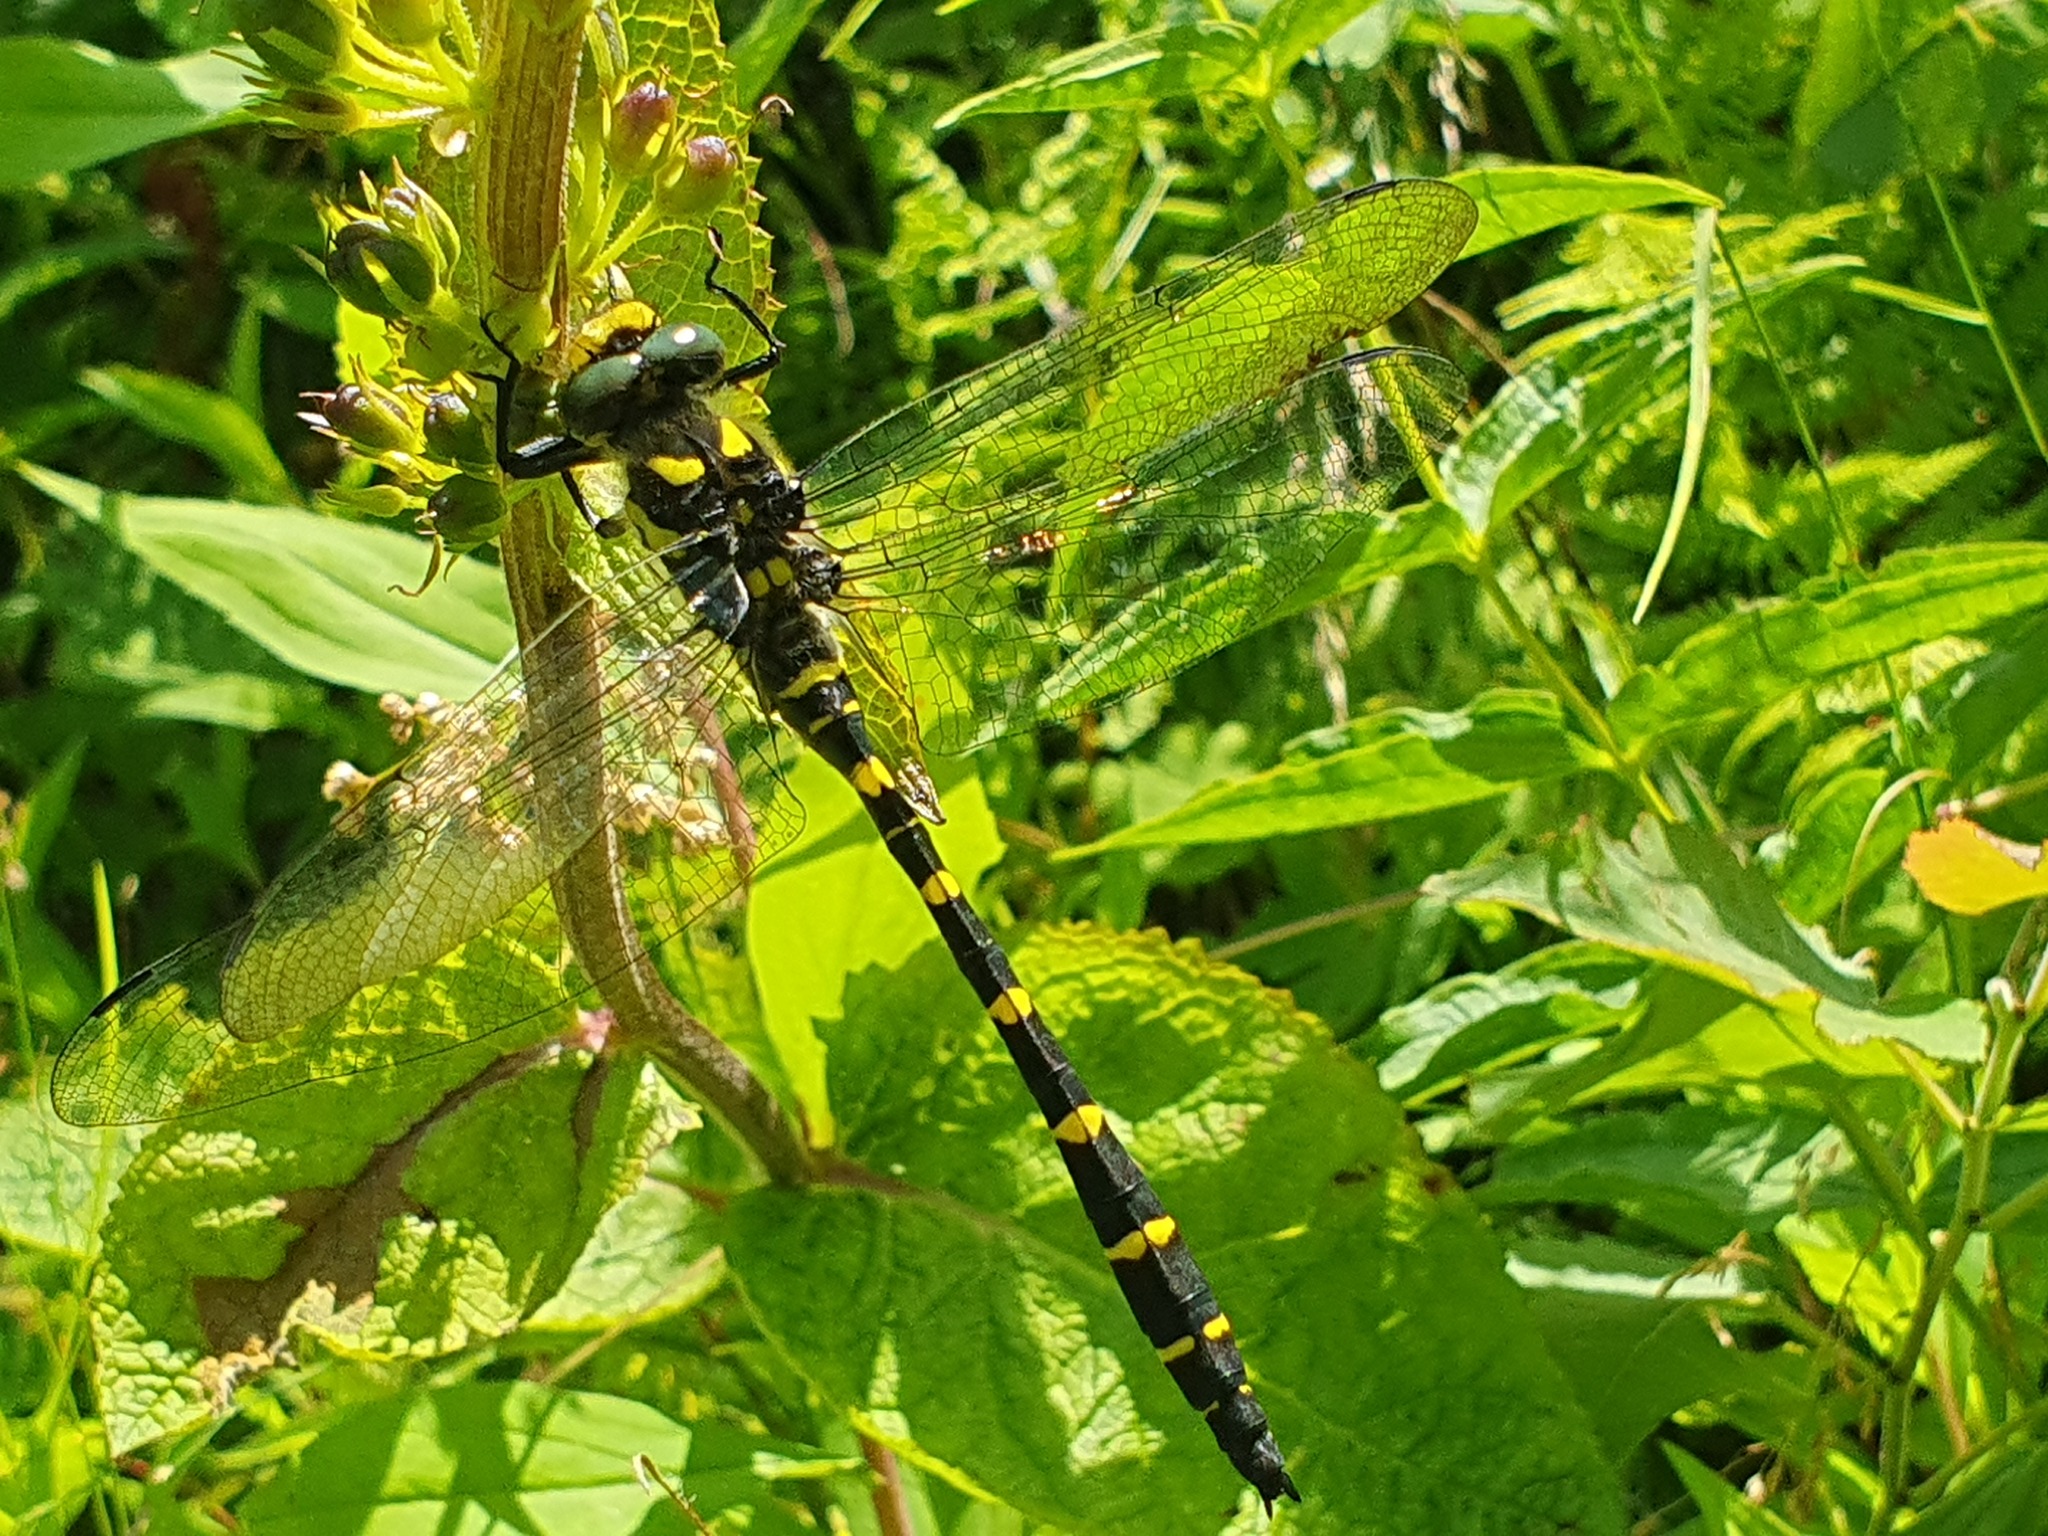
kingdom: Animalia
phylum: Arthropoda
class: Insecta
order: Odonata
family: Cordulegastridae
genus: Cordulegaster
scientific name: Cordulegaster bidentata
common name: Sombre goldenring
